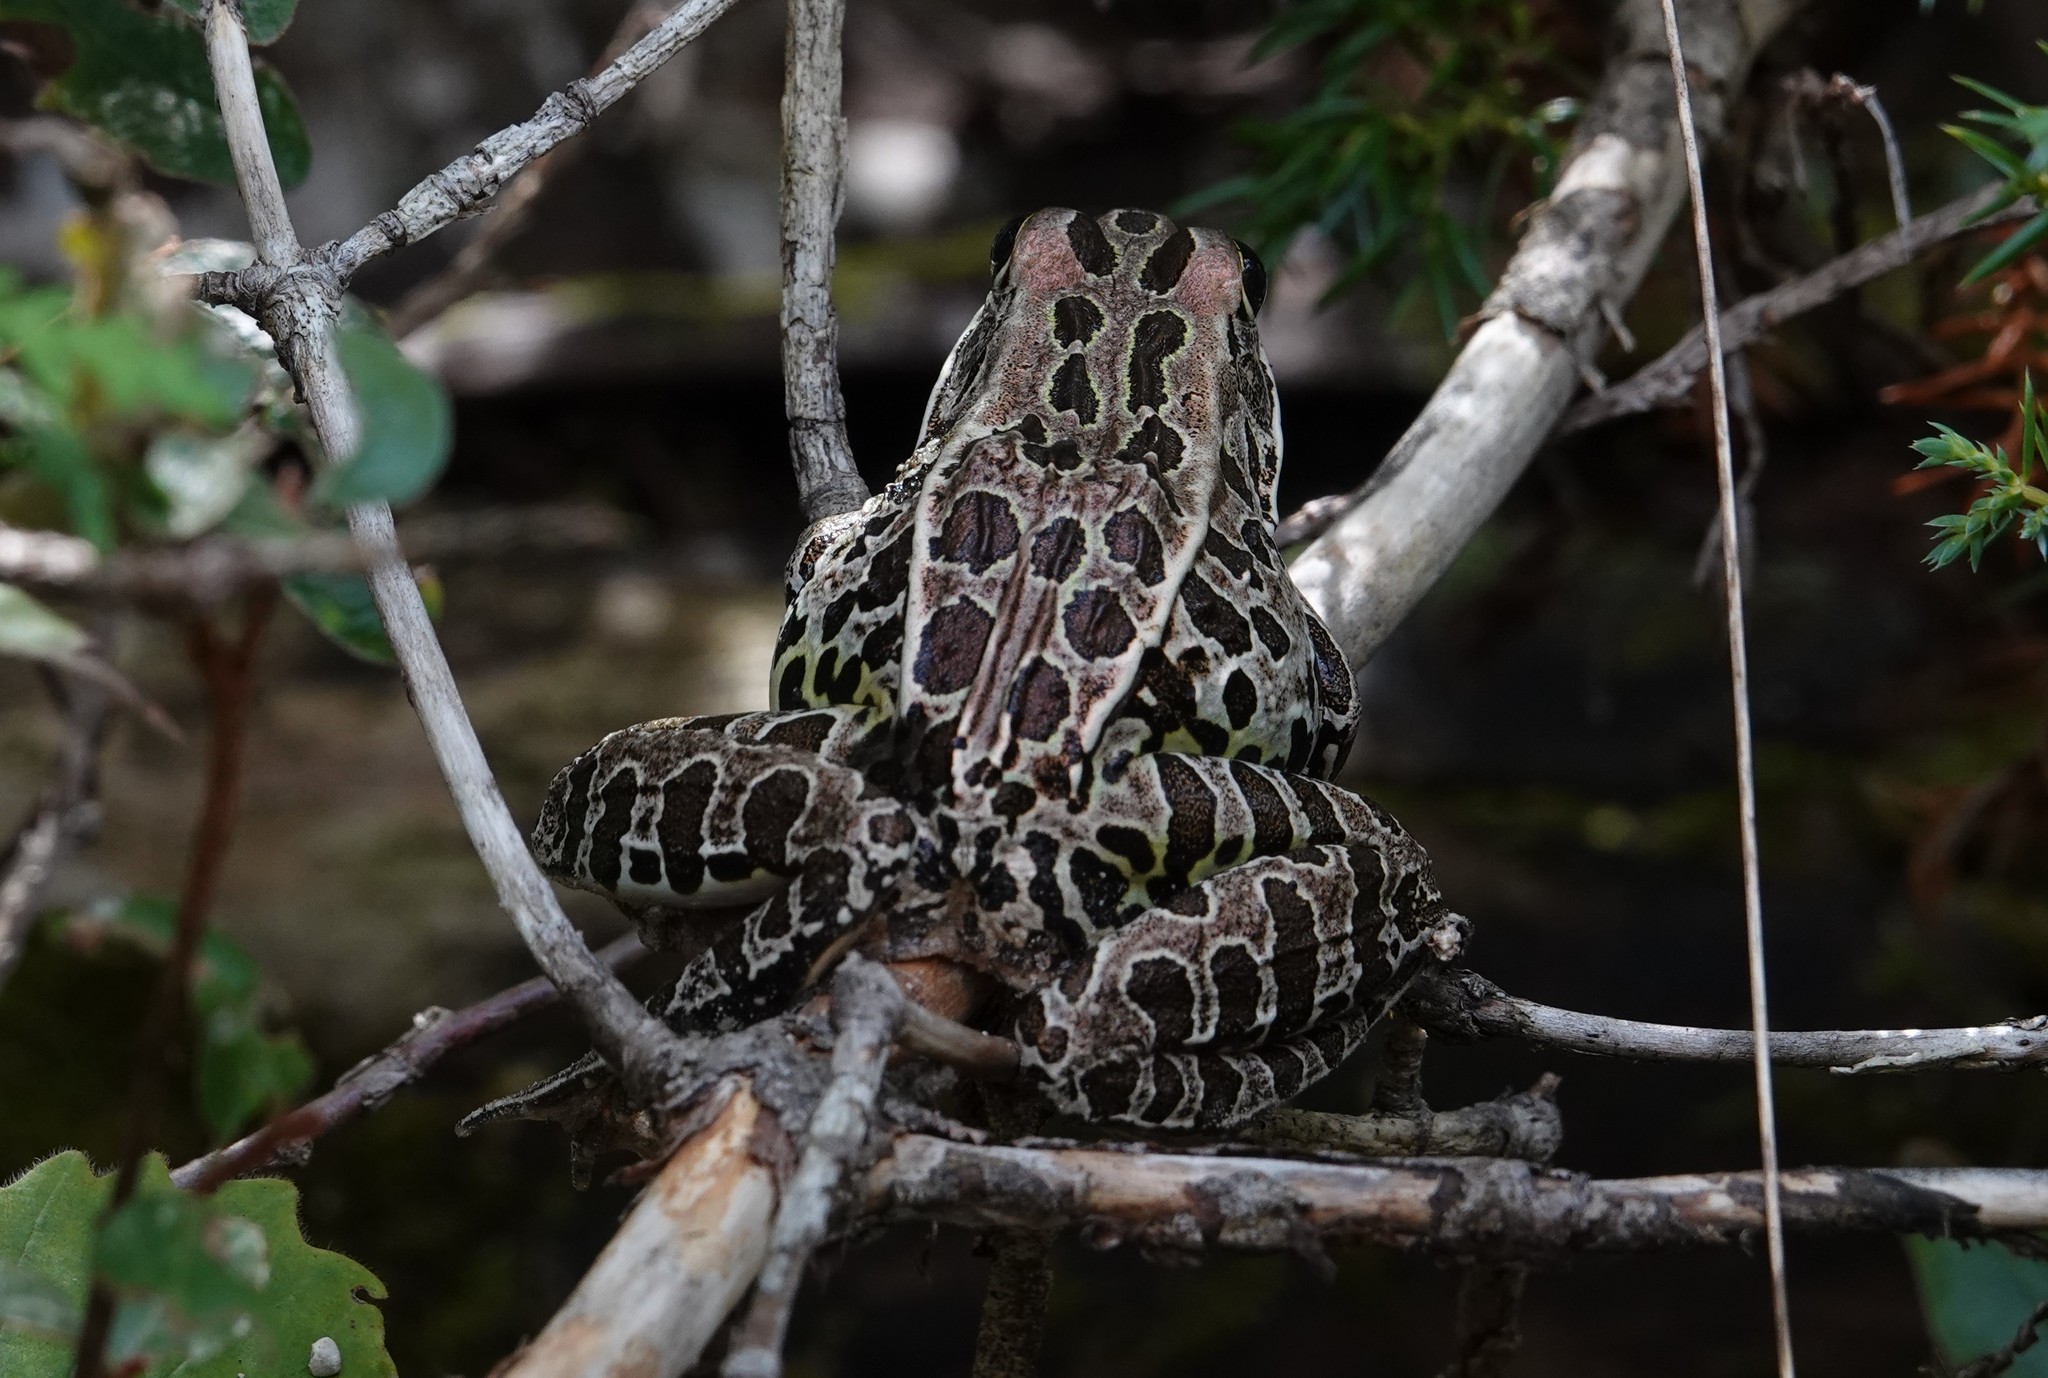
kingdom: Animalia
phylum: Chordata
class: Amphibia
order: Anura
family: Ranidae
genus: Lithobates
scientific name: Lithobates pipiens
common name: Northern leopard frog
